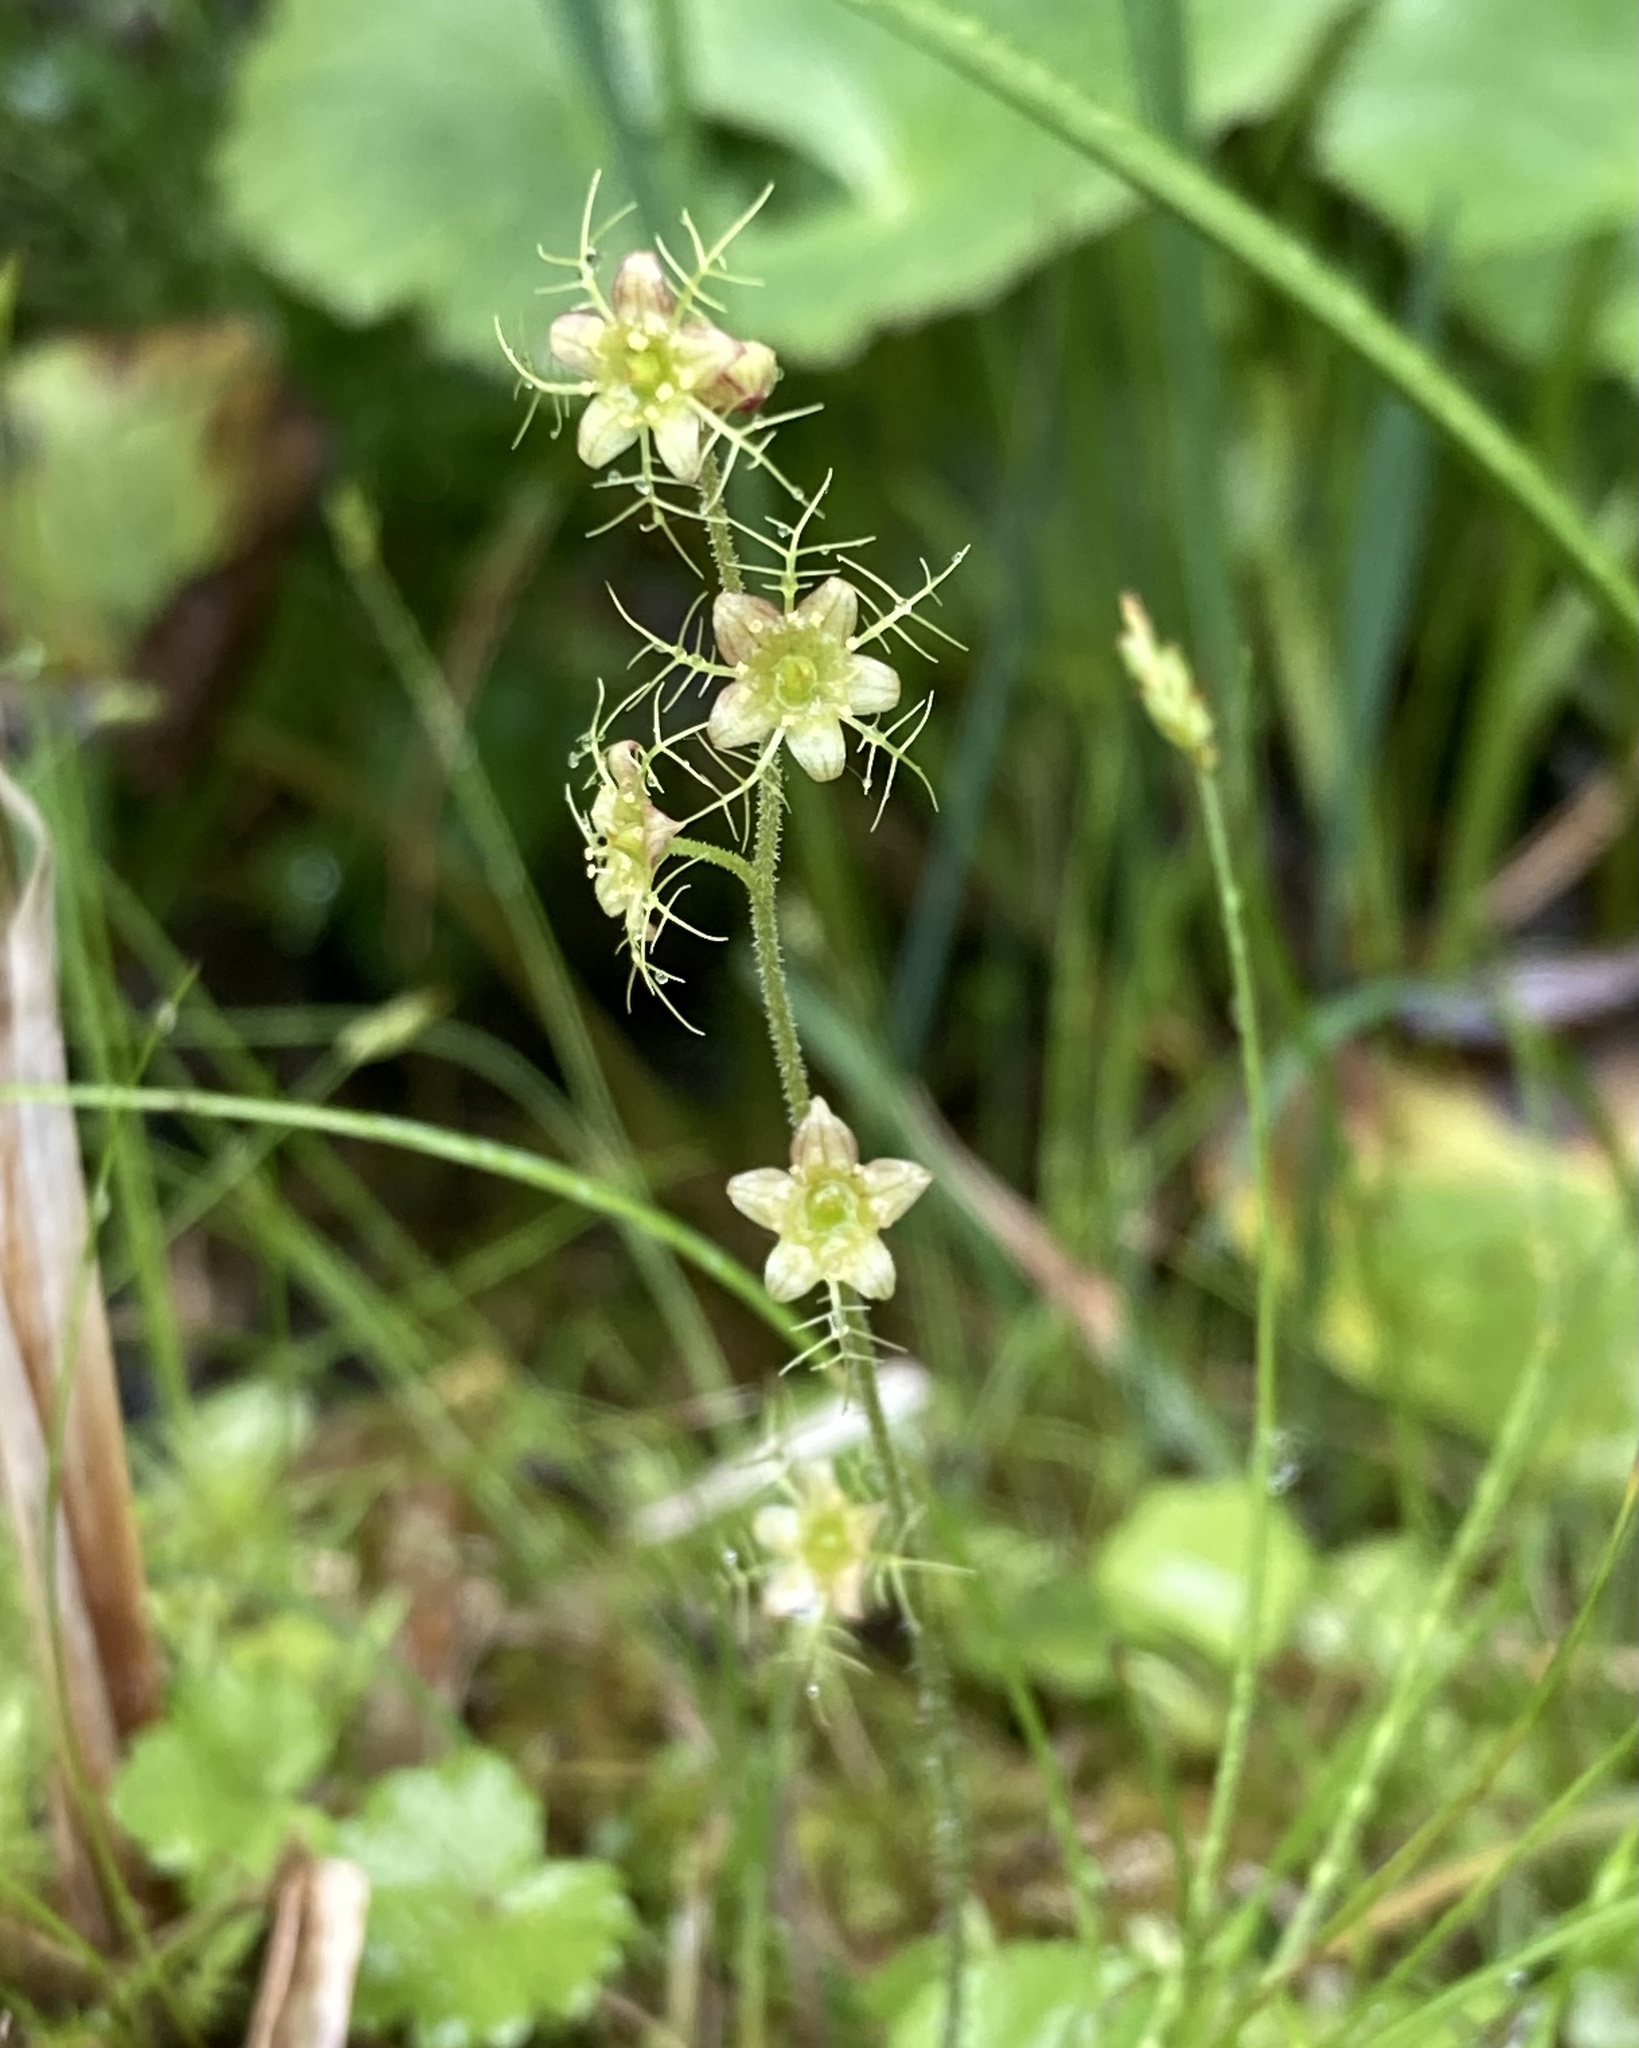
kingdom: Plantae
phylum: Tracheophyta
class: Magnoliopsida
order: Saxifragales
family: Saxifragaceae
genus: Mitella
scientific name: Mitella nuda
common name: Bare-stemmed bishop's-cap
